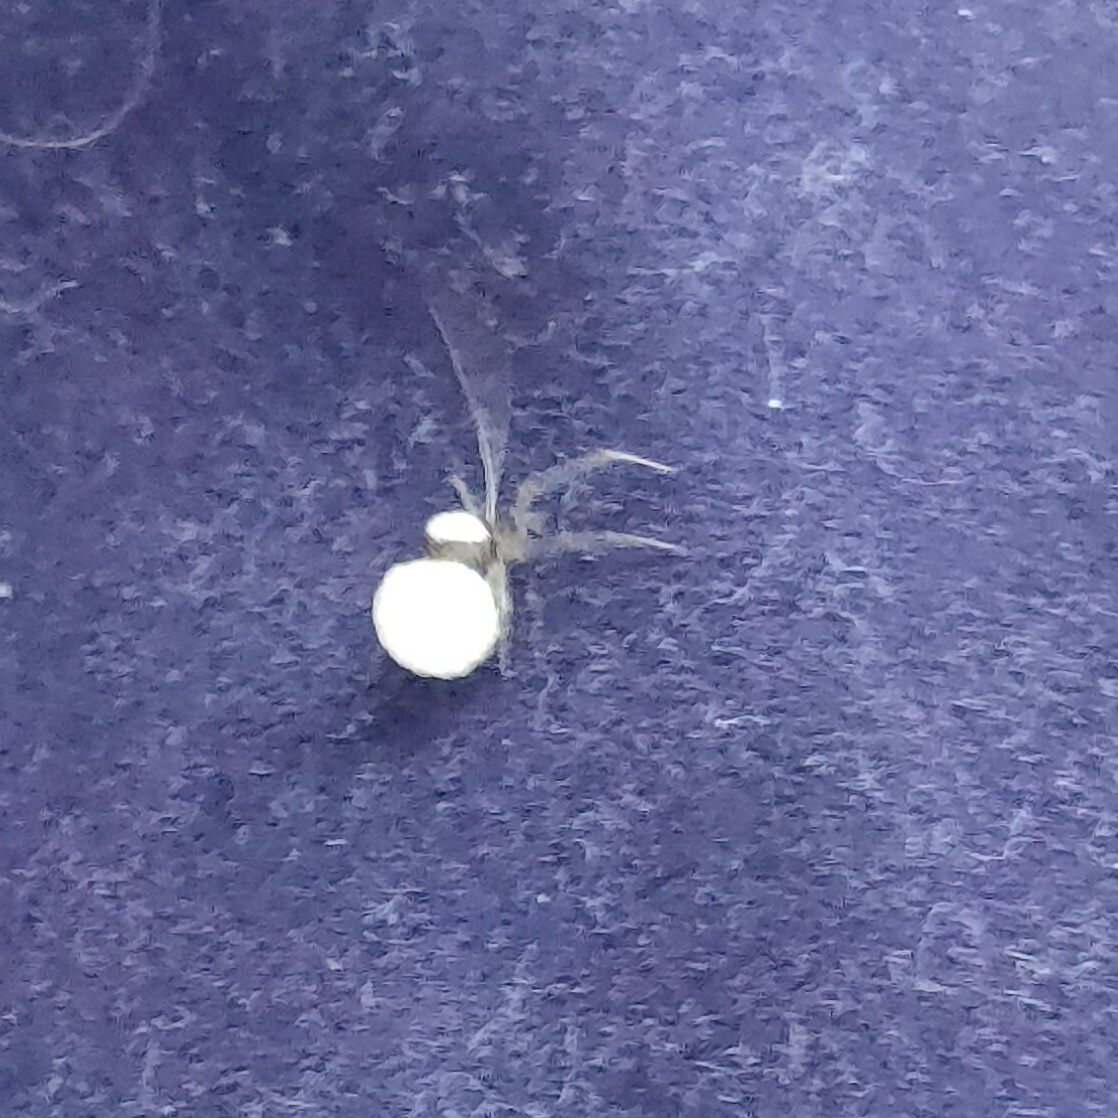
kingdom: Animalia
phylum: Arthropoda
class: Arachnida
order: Araneae
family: Theridiidae
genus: Neottiura
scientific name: Neottiura bimaculata
